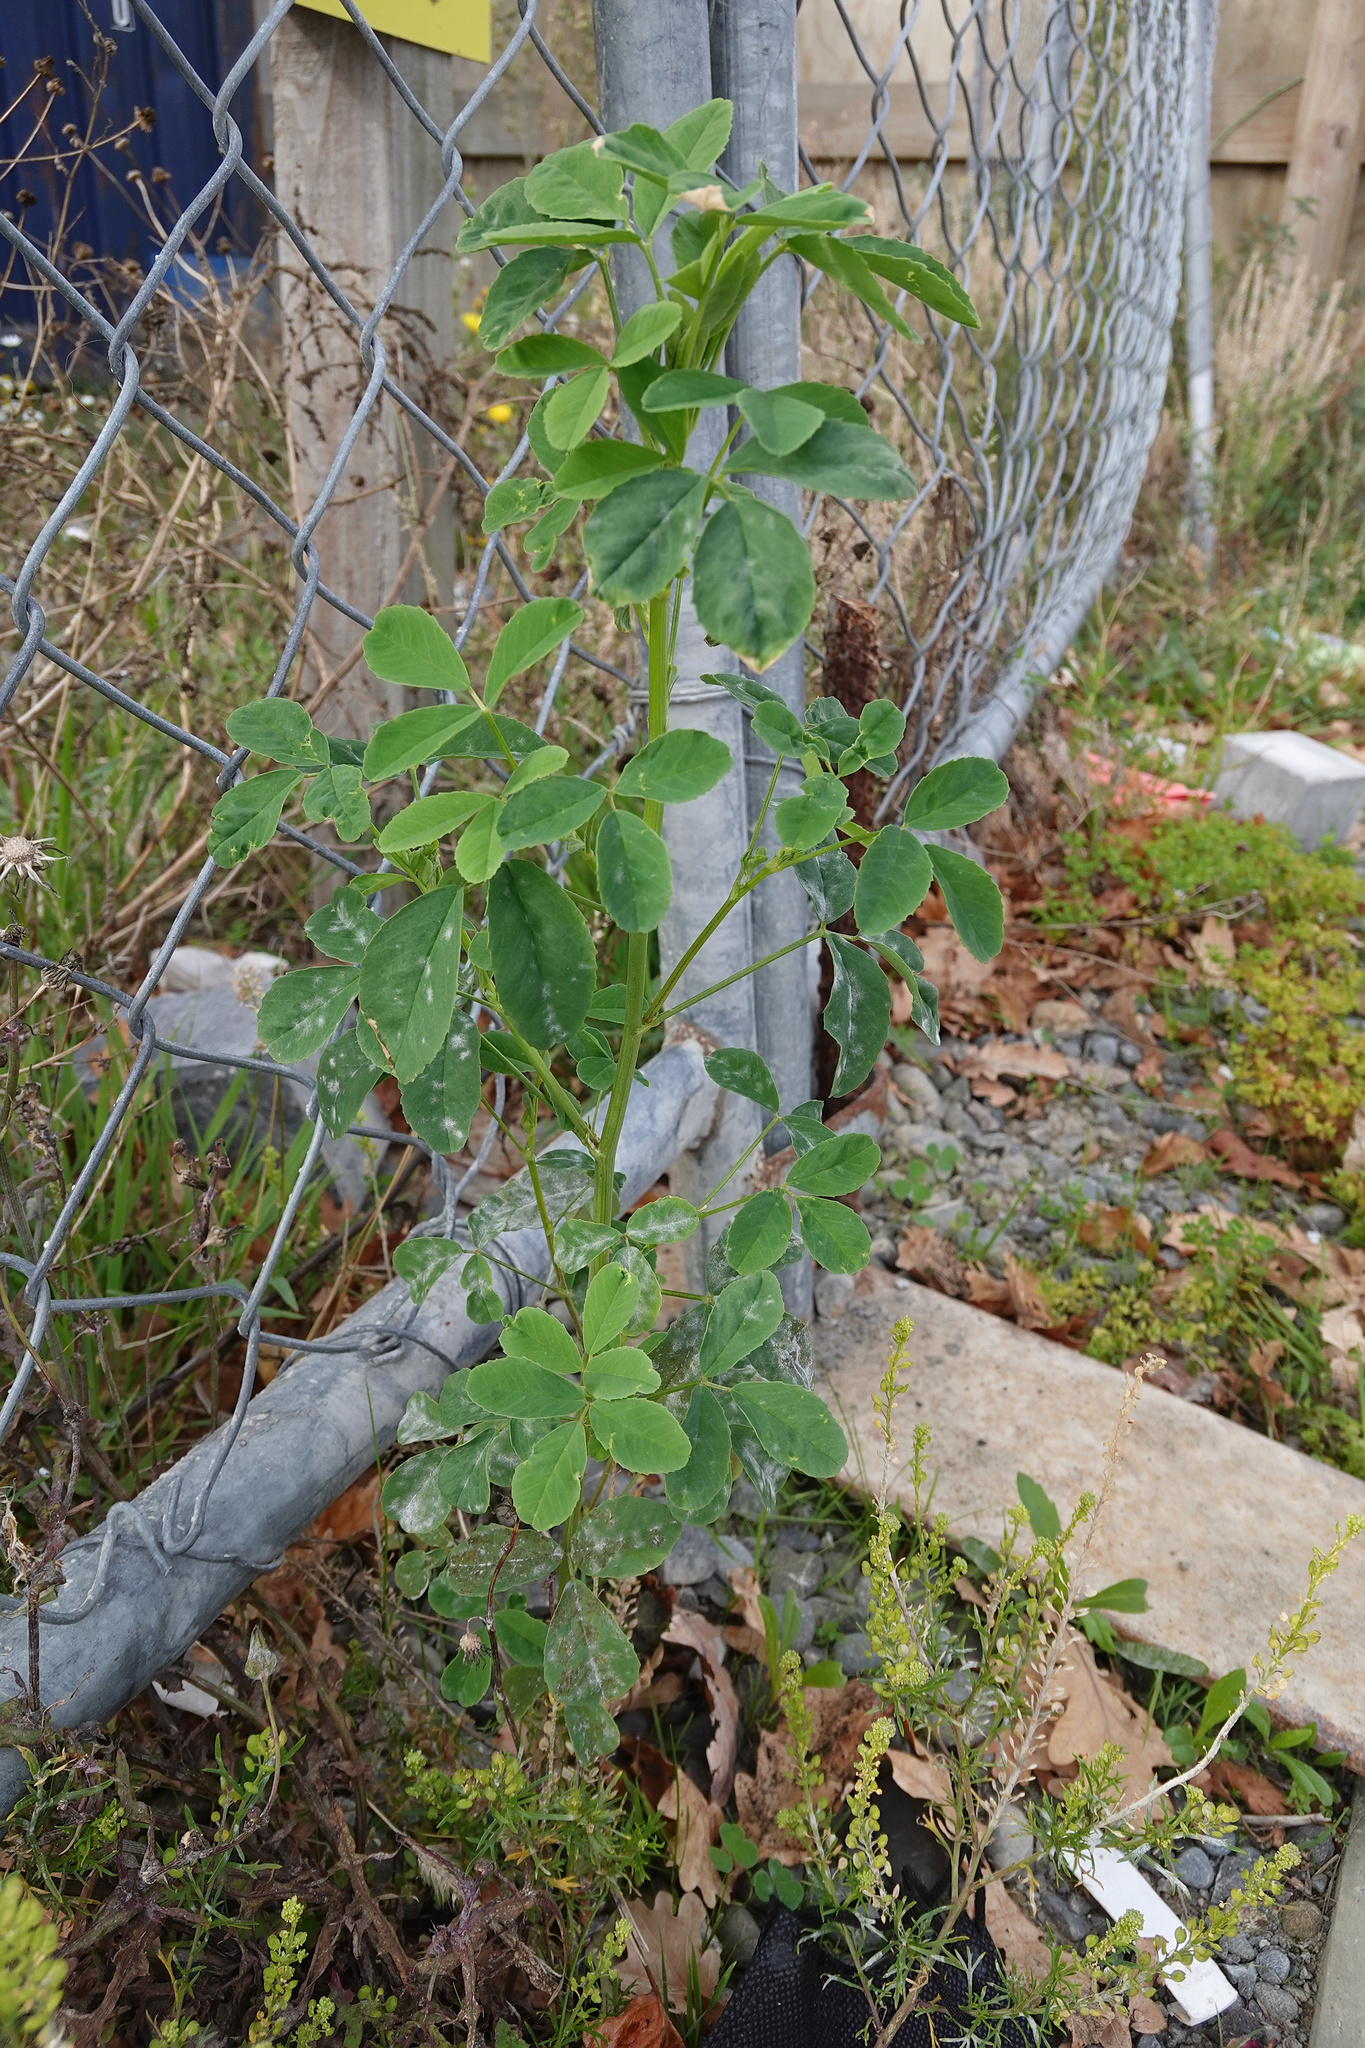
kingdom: Plantae
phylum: Tracheophyta
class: Magnoliopsida
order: Fabales
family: Fabaceae
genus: Melilotus
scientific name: Melilotus indicus
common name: Small melilot
